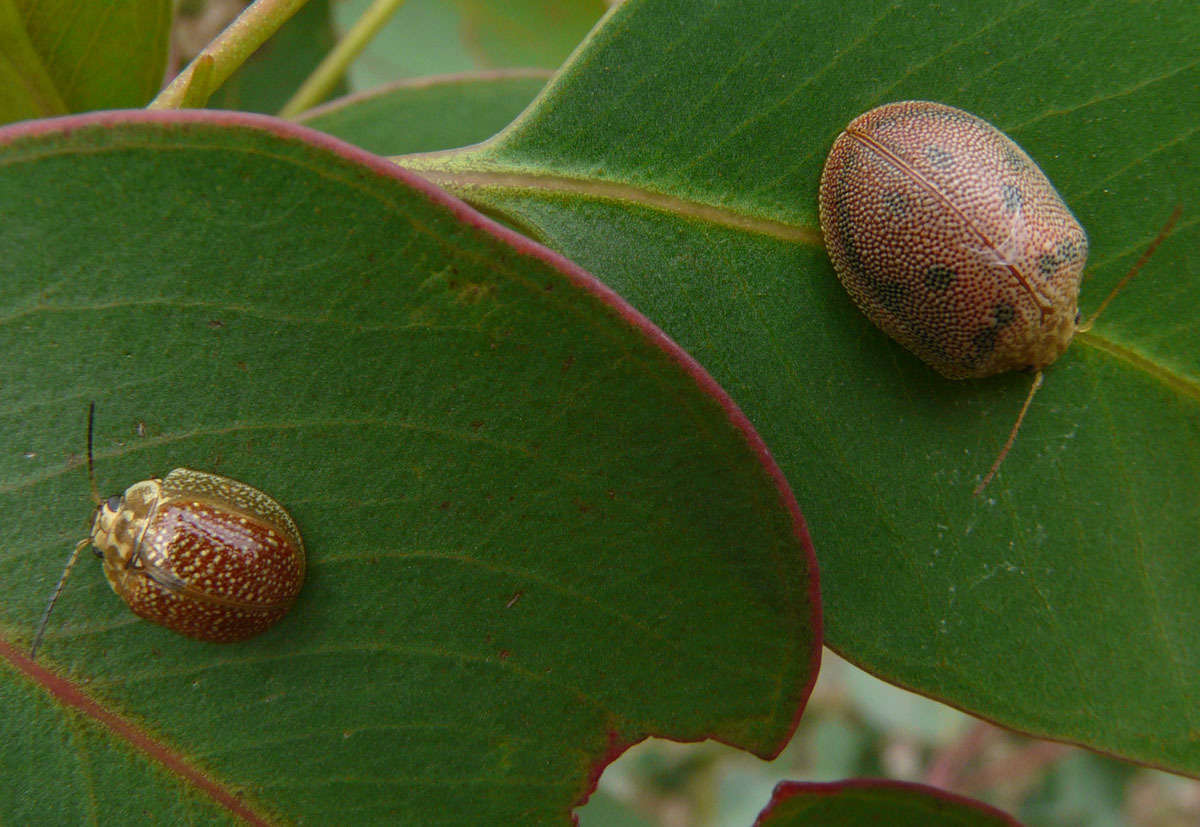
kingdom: Animalia
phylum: Arthropoda
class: Insecta
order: Coleoptera
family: Chrysomelidae
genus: Paropsis
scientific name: Paropsis
